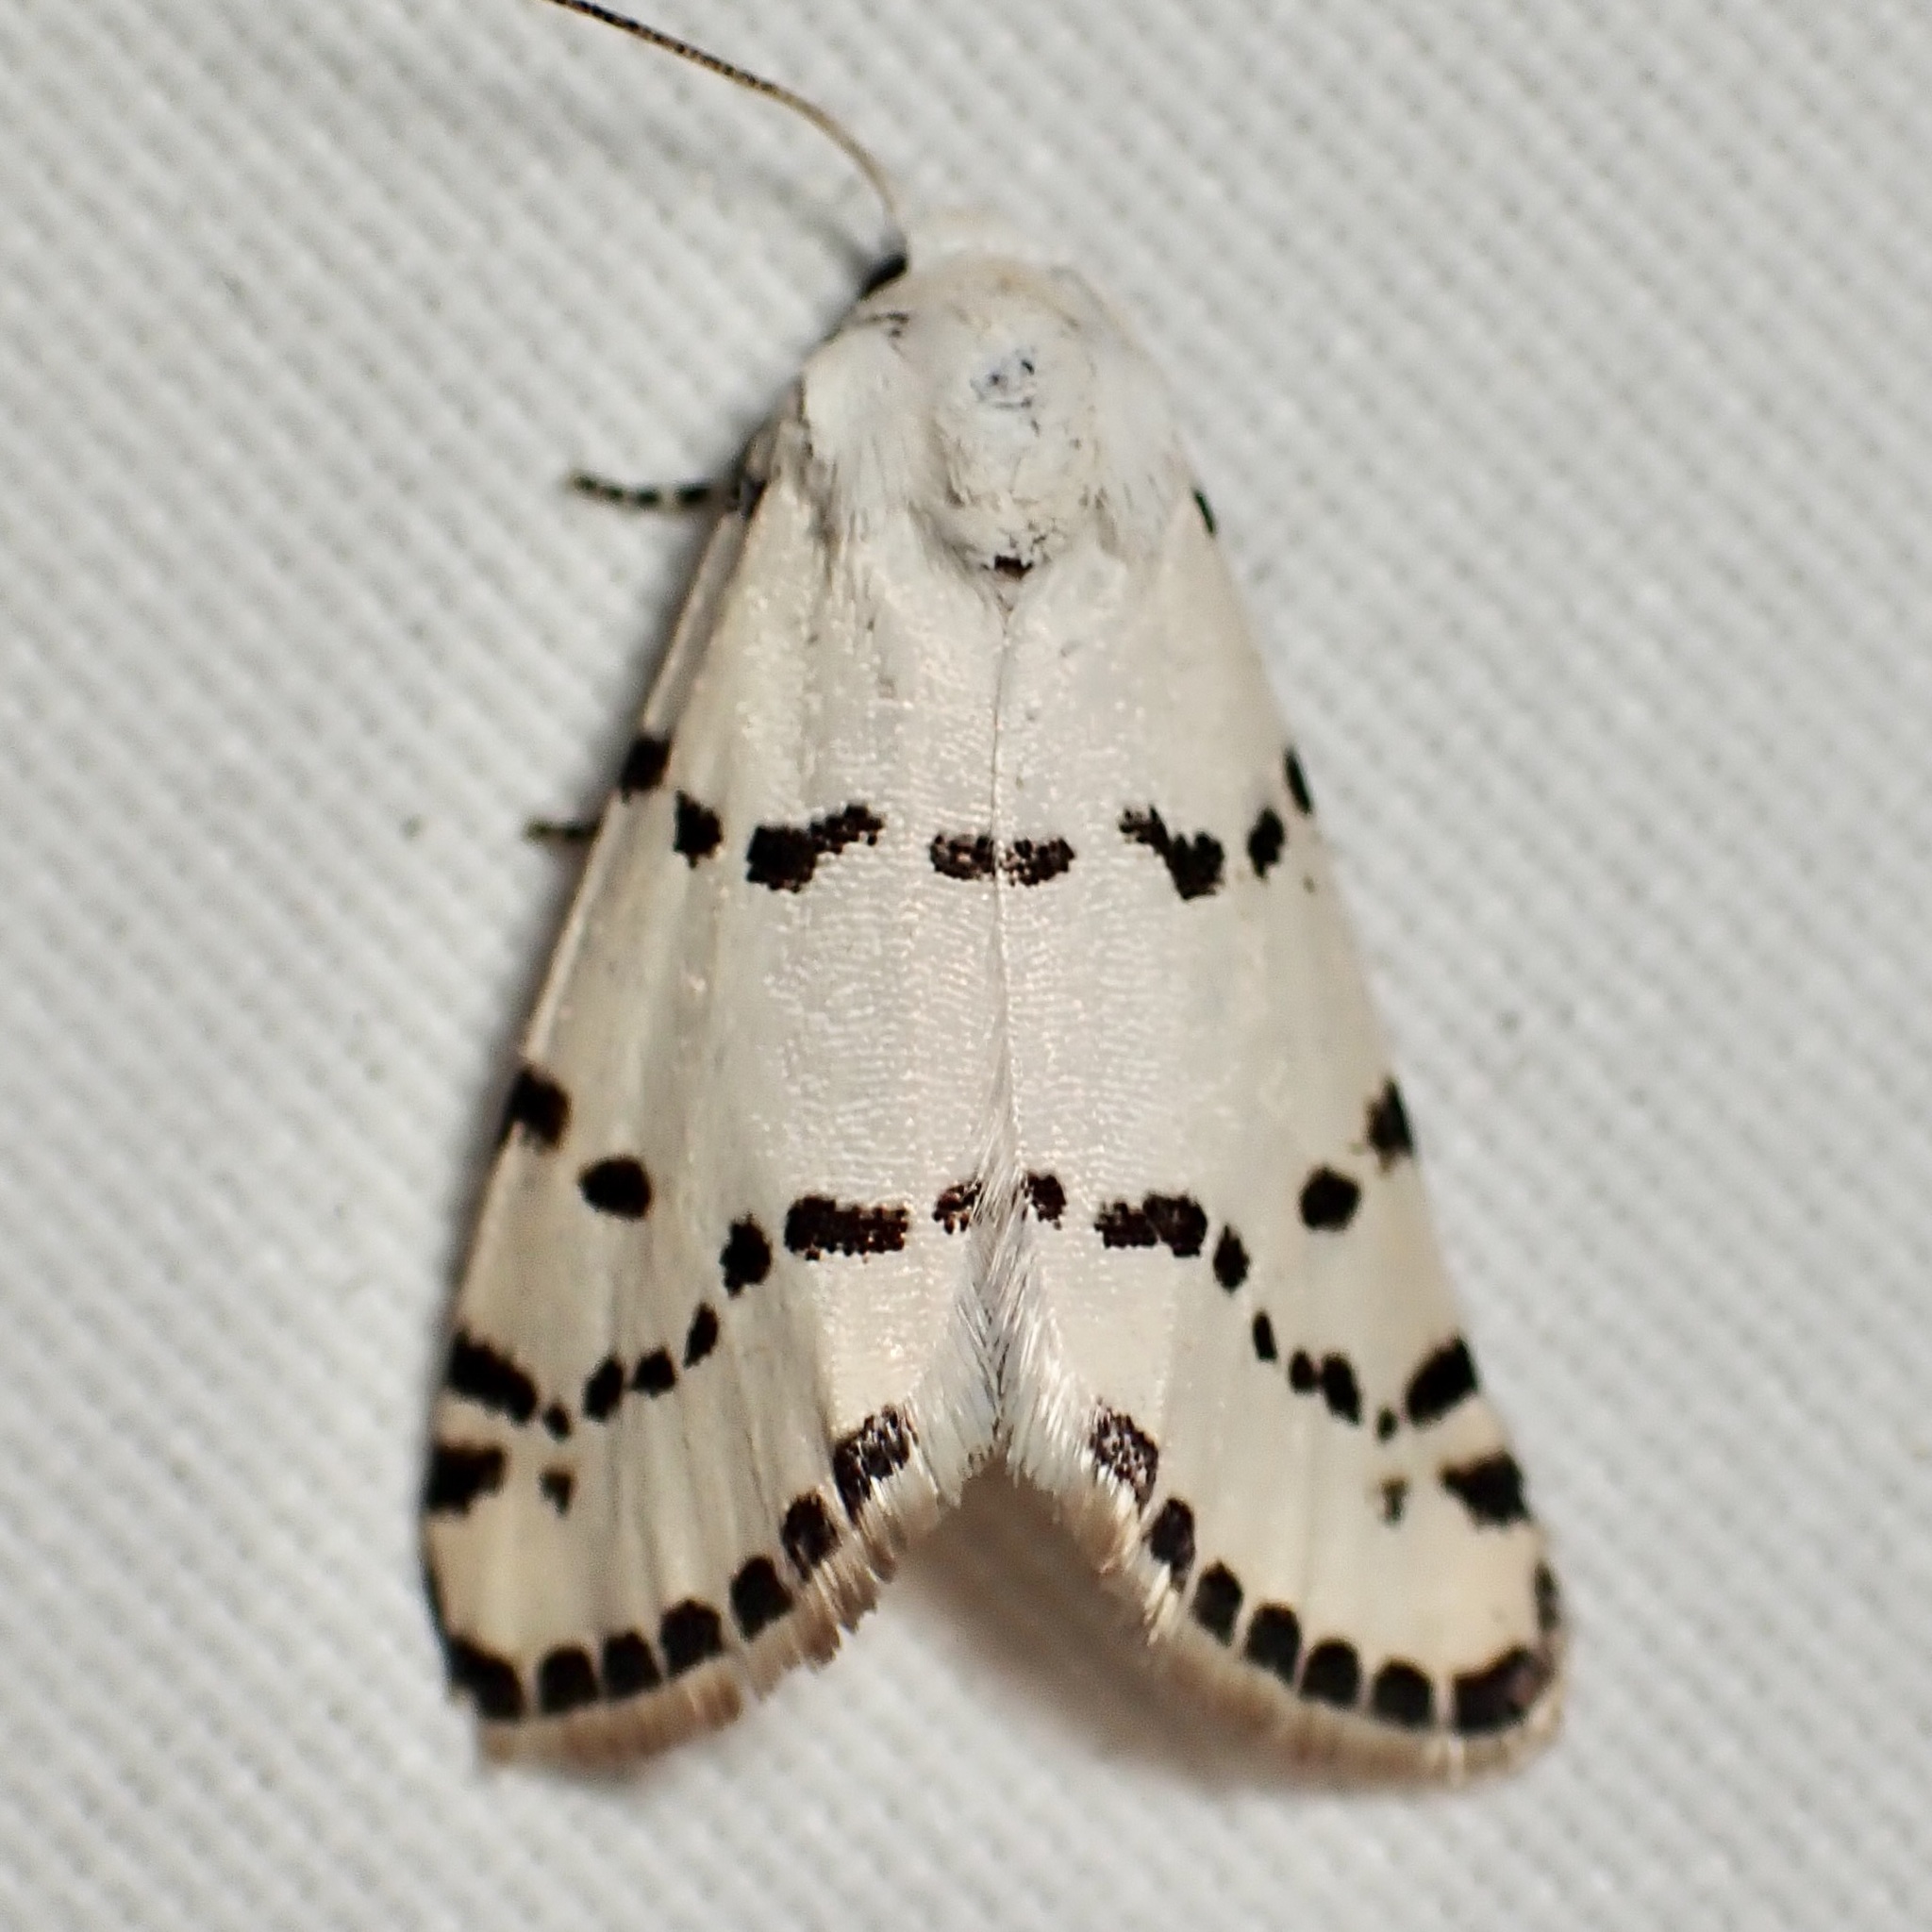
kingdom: Animalia
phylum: Arthropoda
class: Insecta
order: Lepidoptera
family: Noctuidae
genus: Grotella
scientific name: Grotella binda
